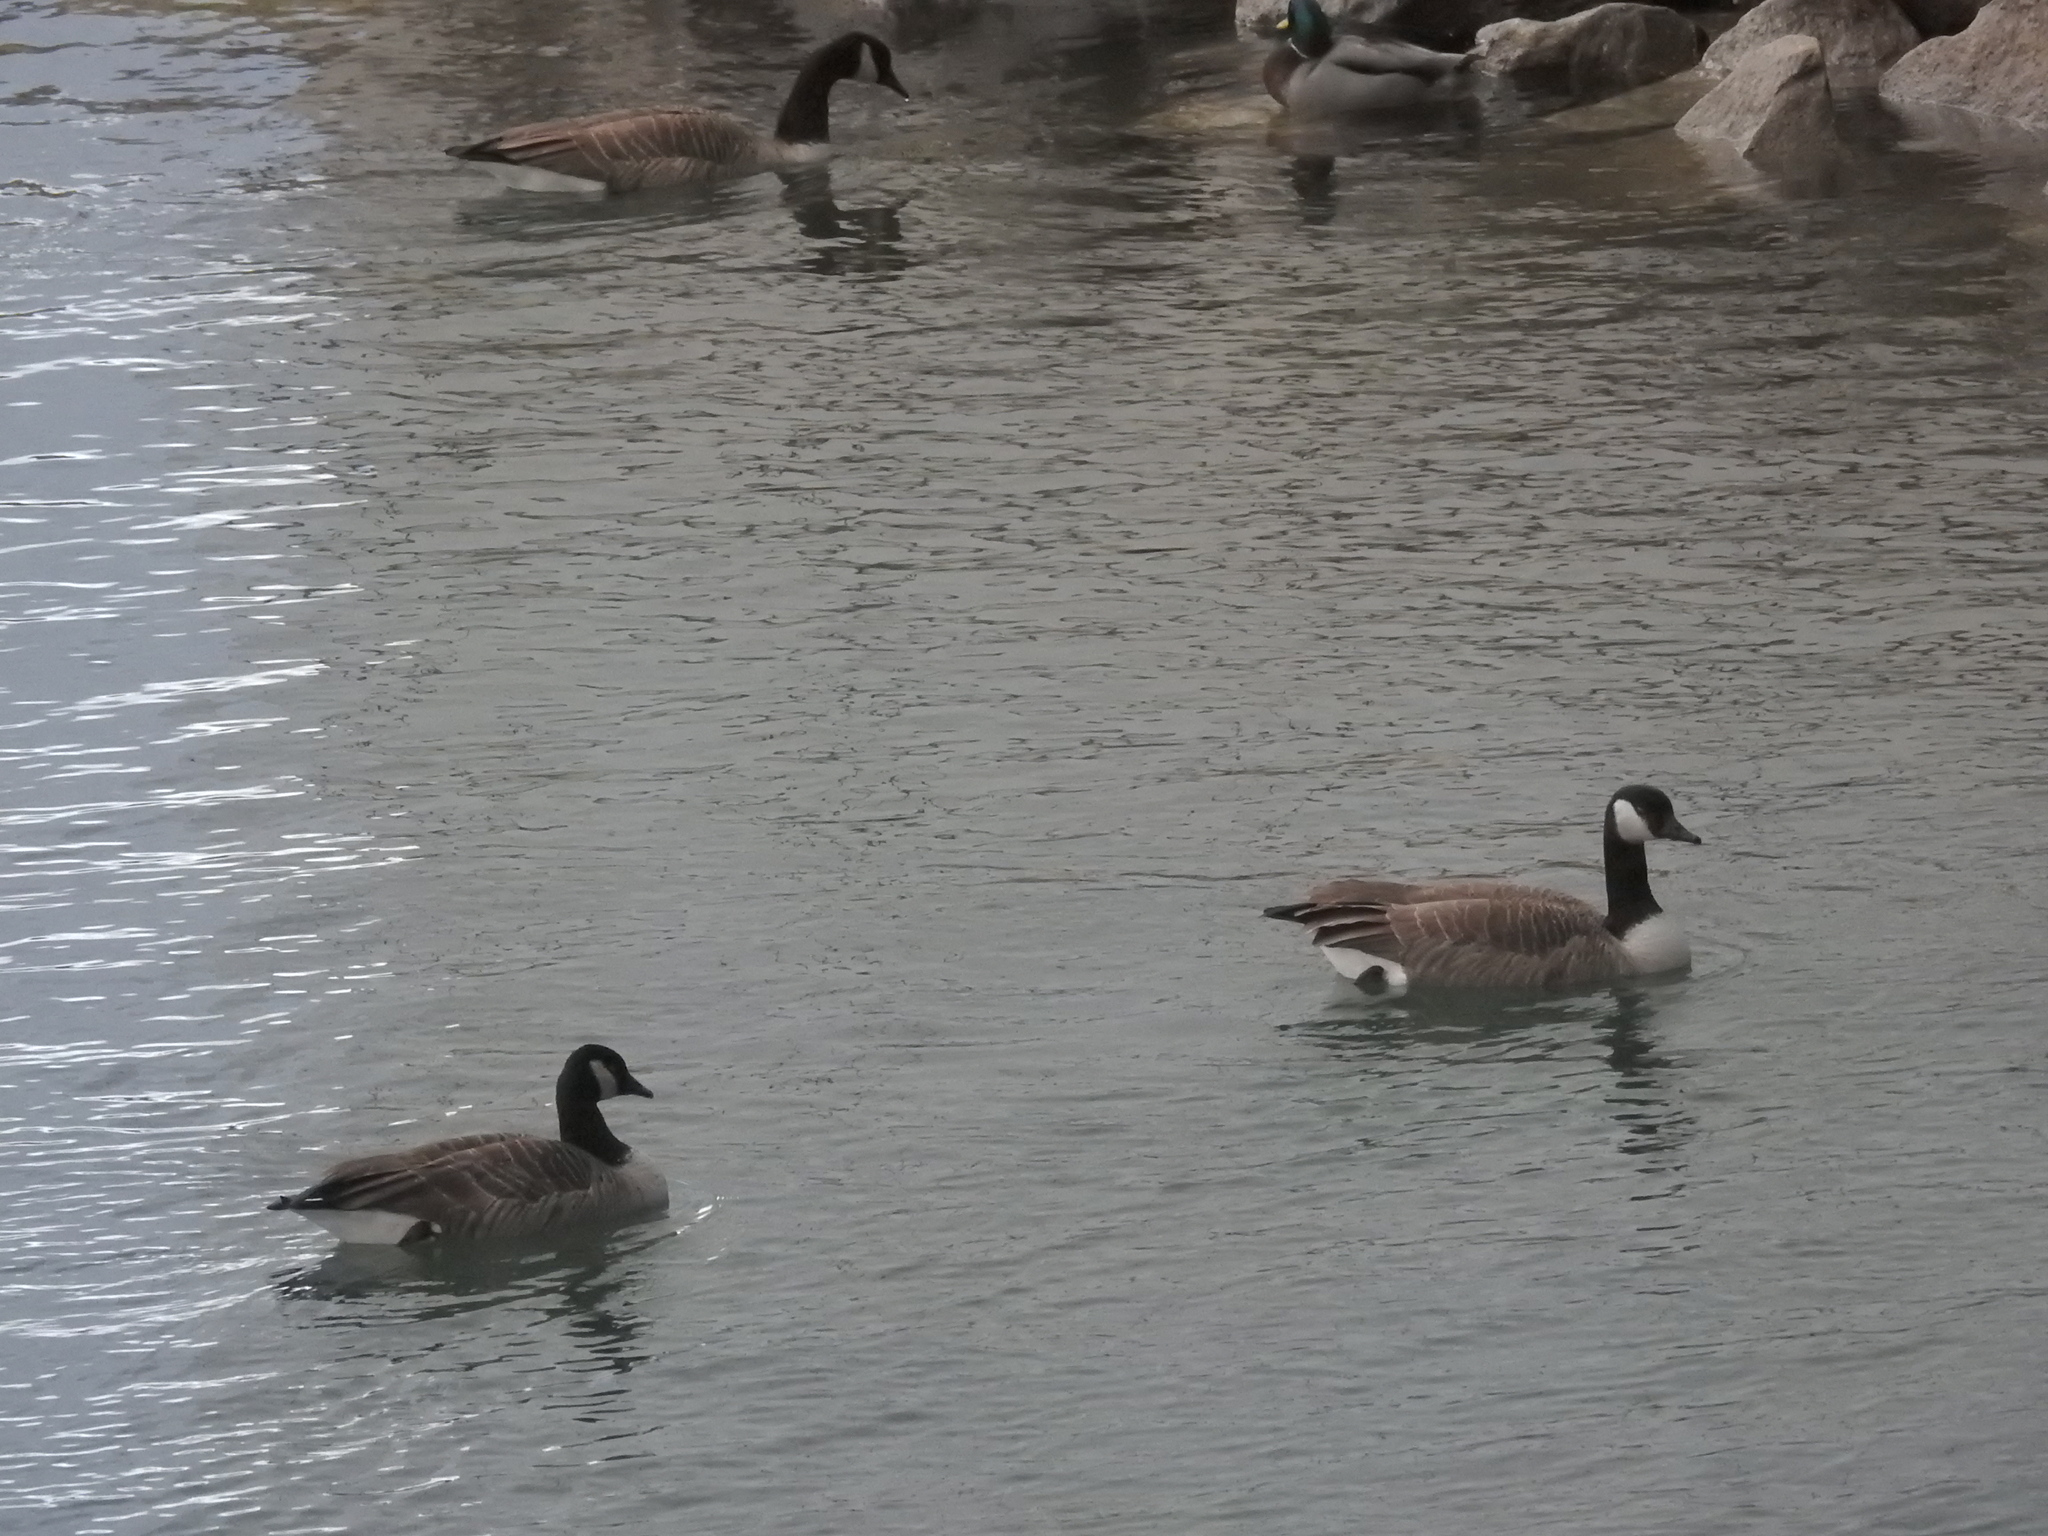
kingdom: Animalia
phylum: Chordata
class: Aves
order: Anseriformes
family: Anatidae
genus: Branta
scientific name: Branta canadensis
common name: Canada goose
